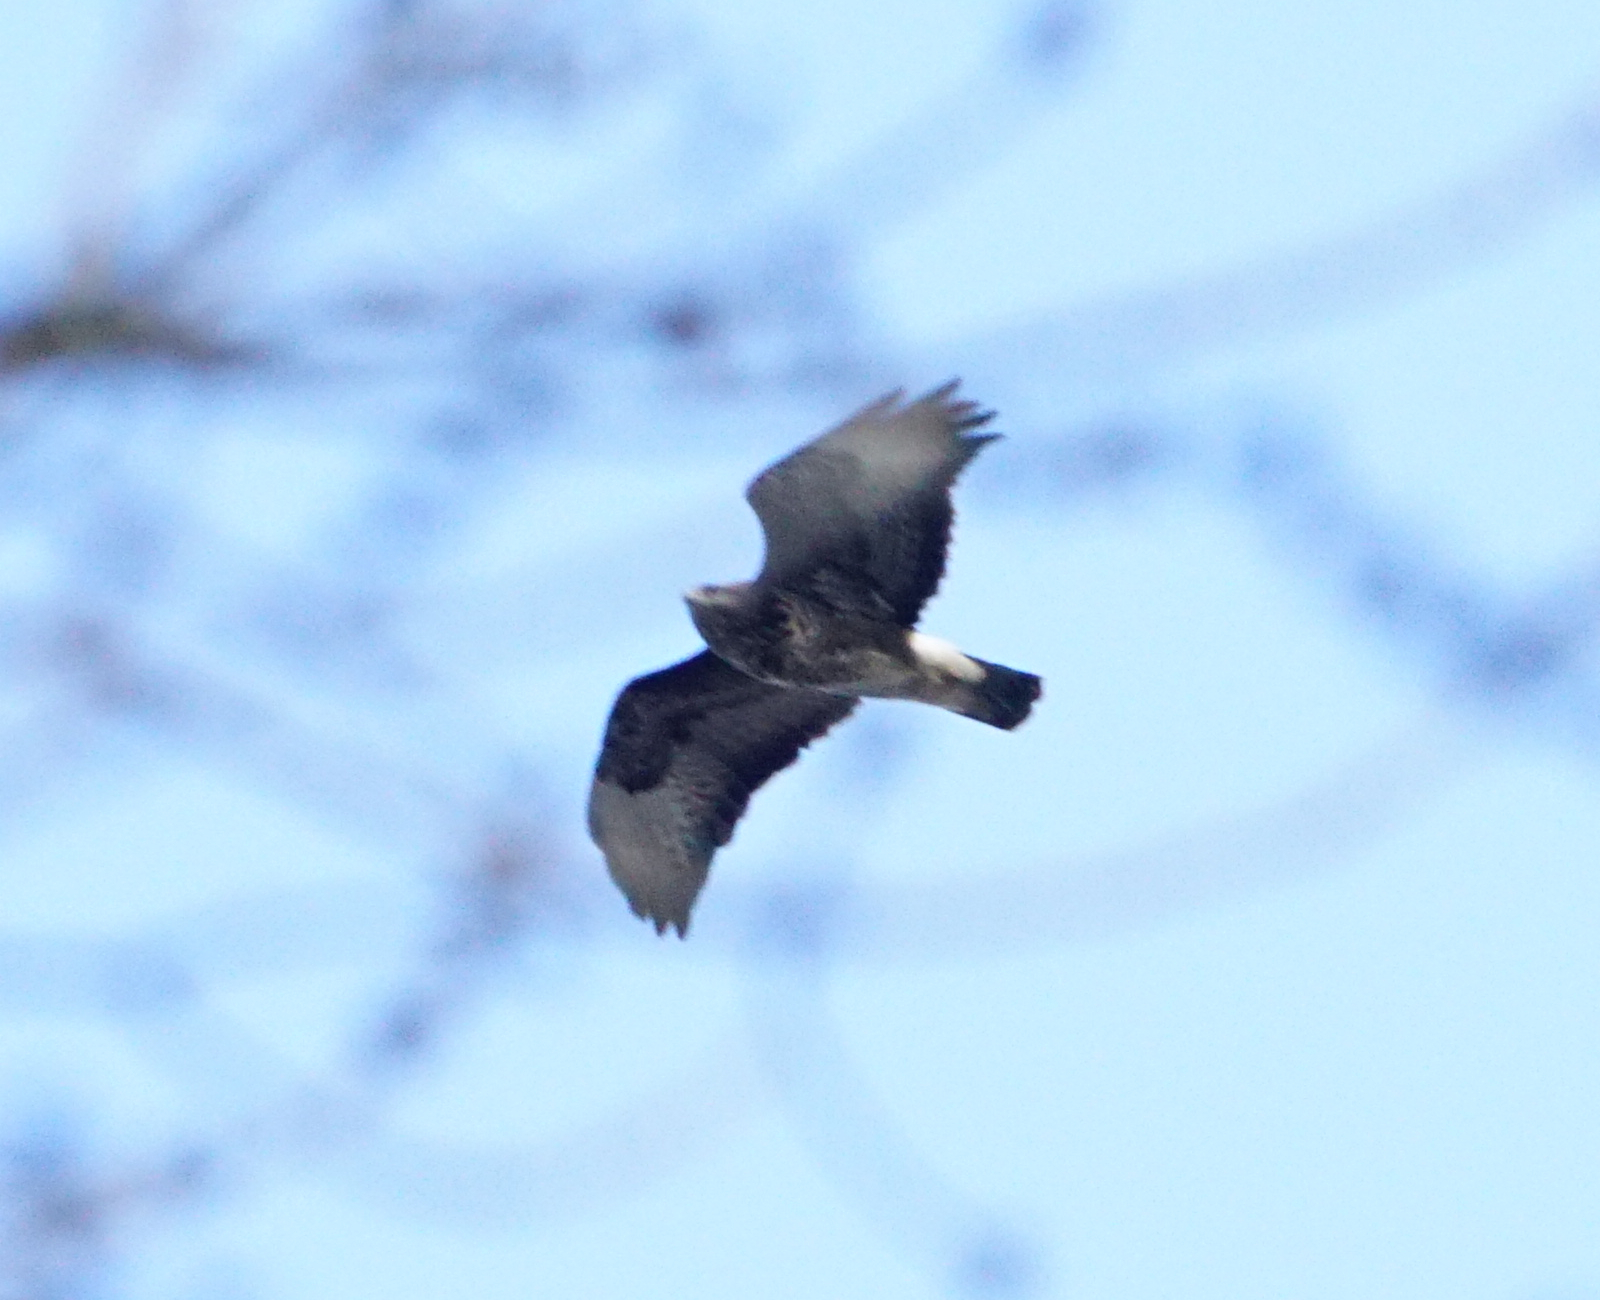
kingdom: Animalia
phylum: Chordata
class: Aves
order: Accipitriformes
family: Accipitridae
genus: Buteo
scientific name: Buteo buteo
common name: Common buzzard
